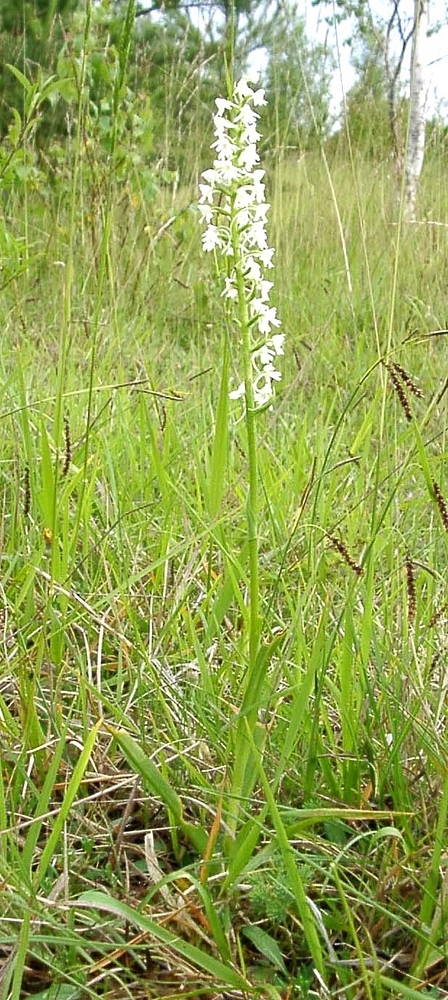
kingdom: Plantae
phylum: Tracheophyta
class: Liliopsida
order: Asparagales
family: Orchidaceae
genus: Gymnadenia
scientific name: Gymnadenia conopsea
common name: Fragrant orchid
